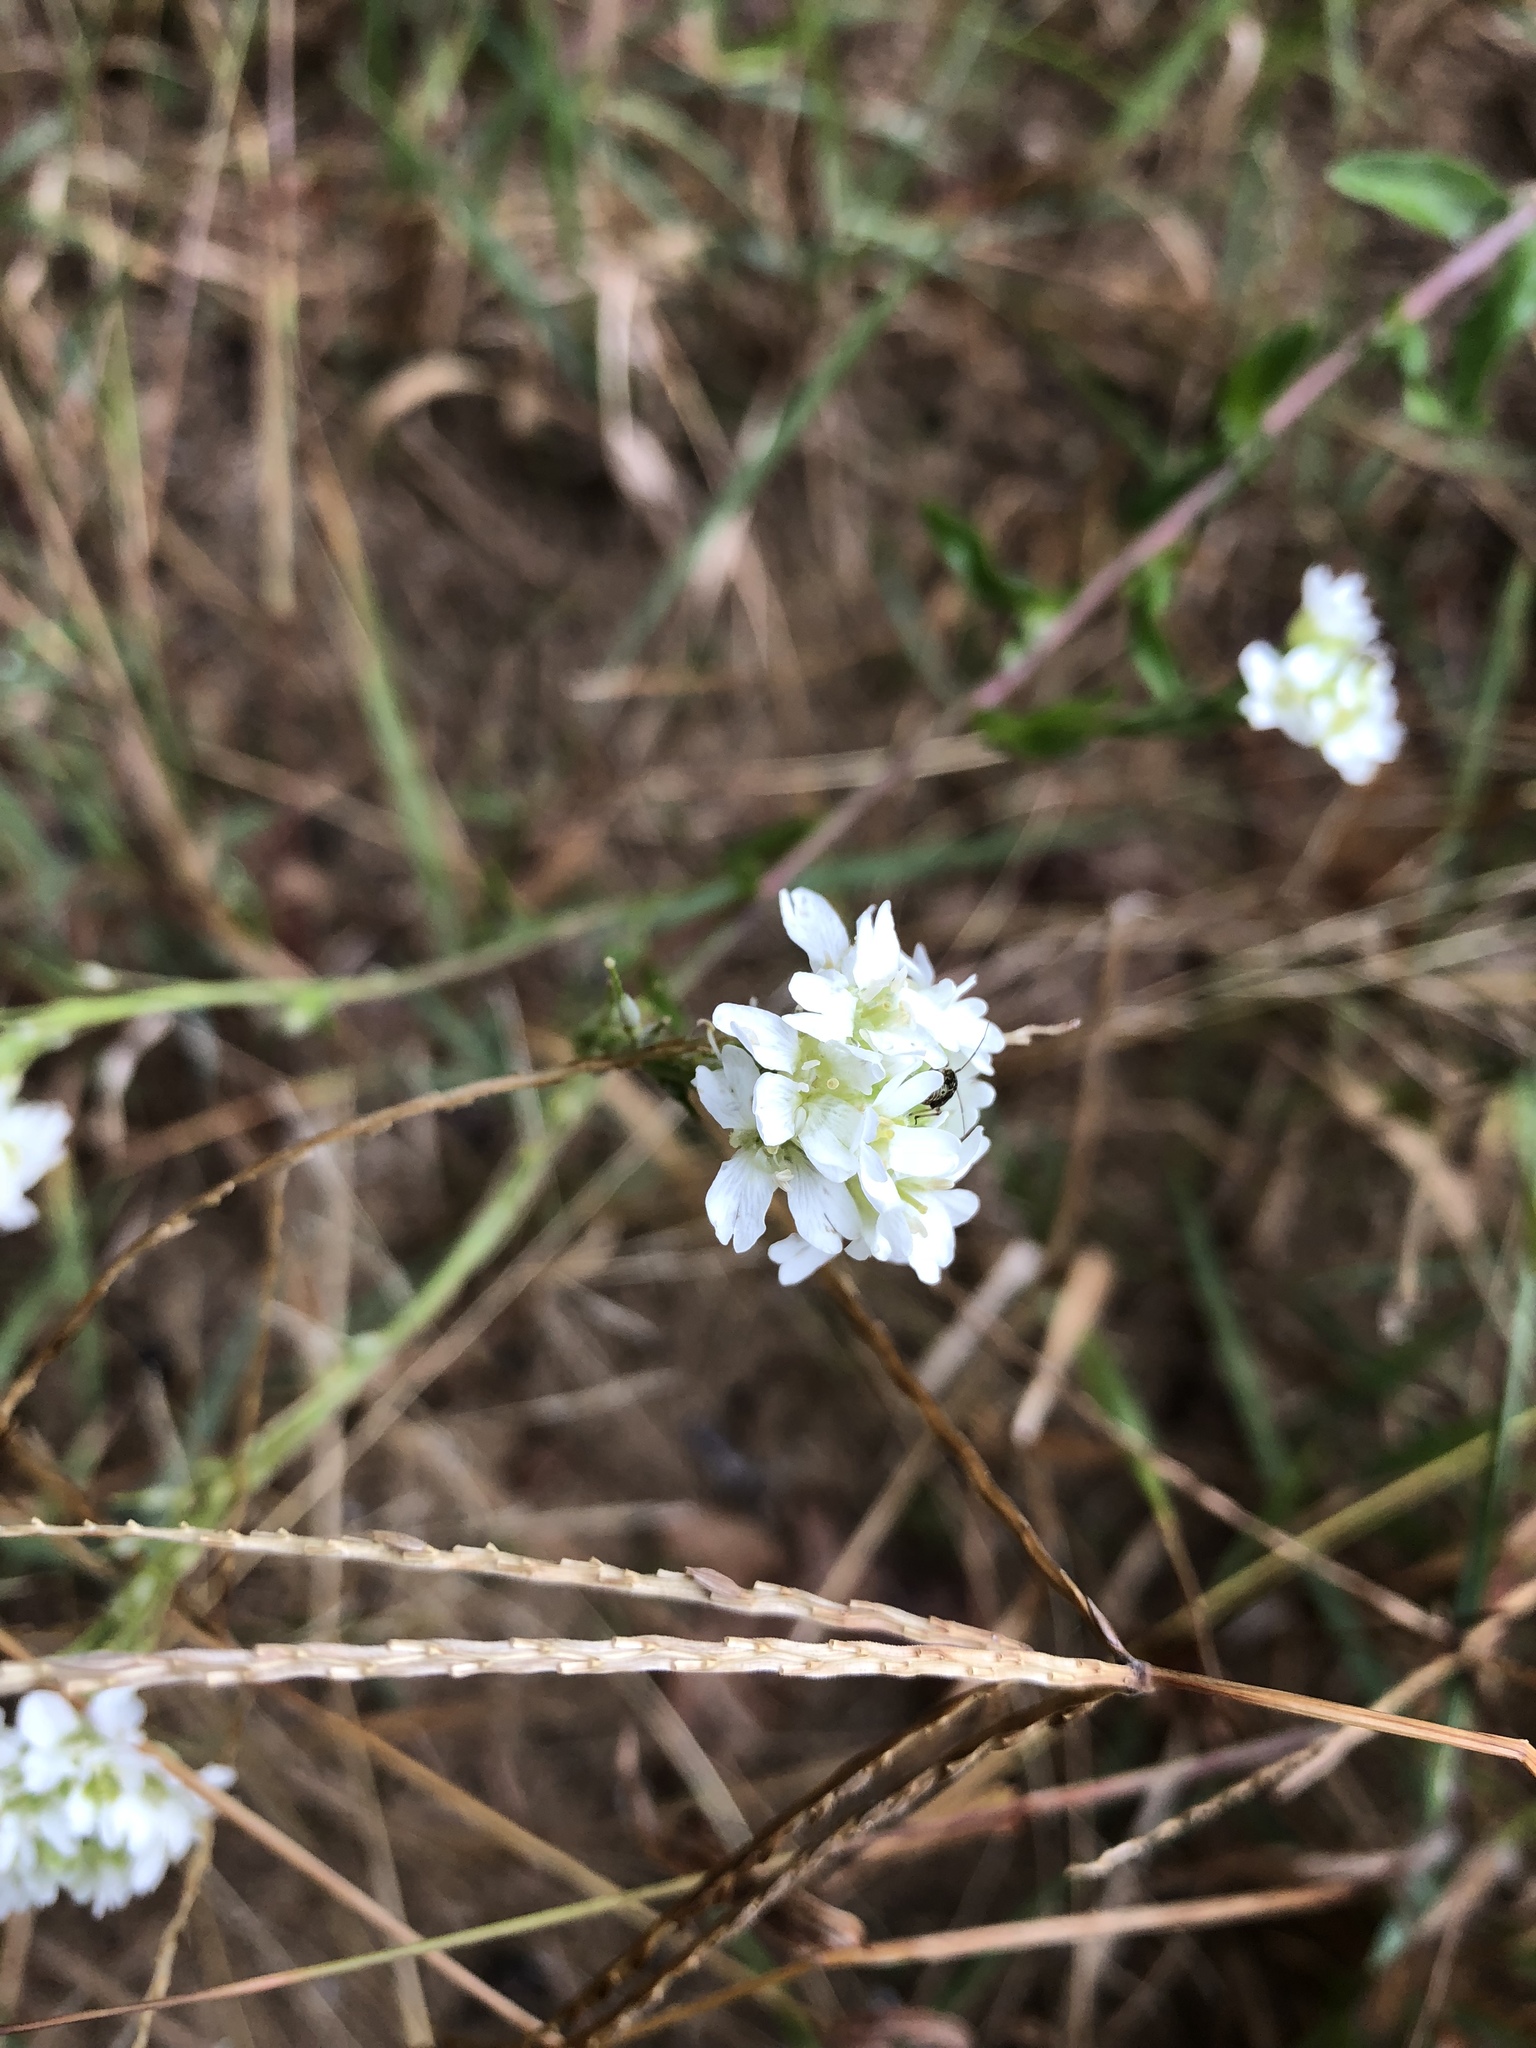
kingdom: Plantae
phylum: Tracheophyta
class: Magnoliopsida
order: Brassicales
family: Brassicaceae
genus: Berteroa
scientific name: Berteroa incana
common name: Hoary alison
